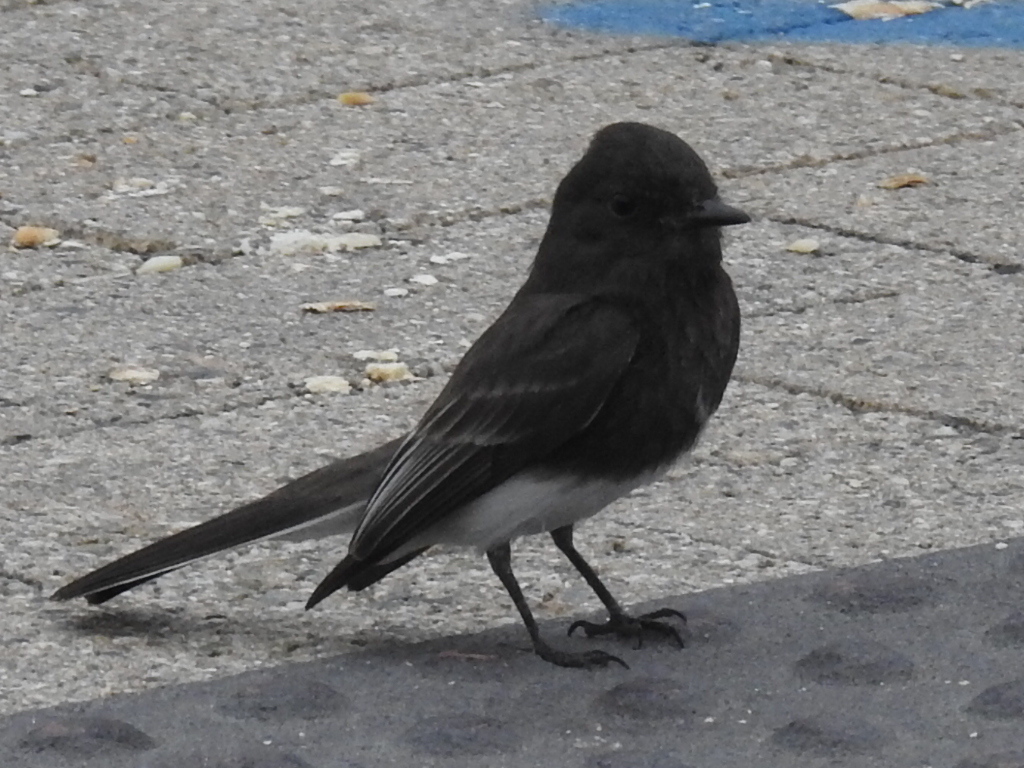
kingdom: Animalia
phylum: Chordata
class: Aves
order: Passeriformes
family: Tyrannidae
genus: Sayornis
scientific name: Sayornis nigricans
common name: Black phoebe
